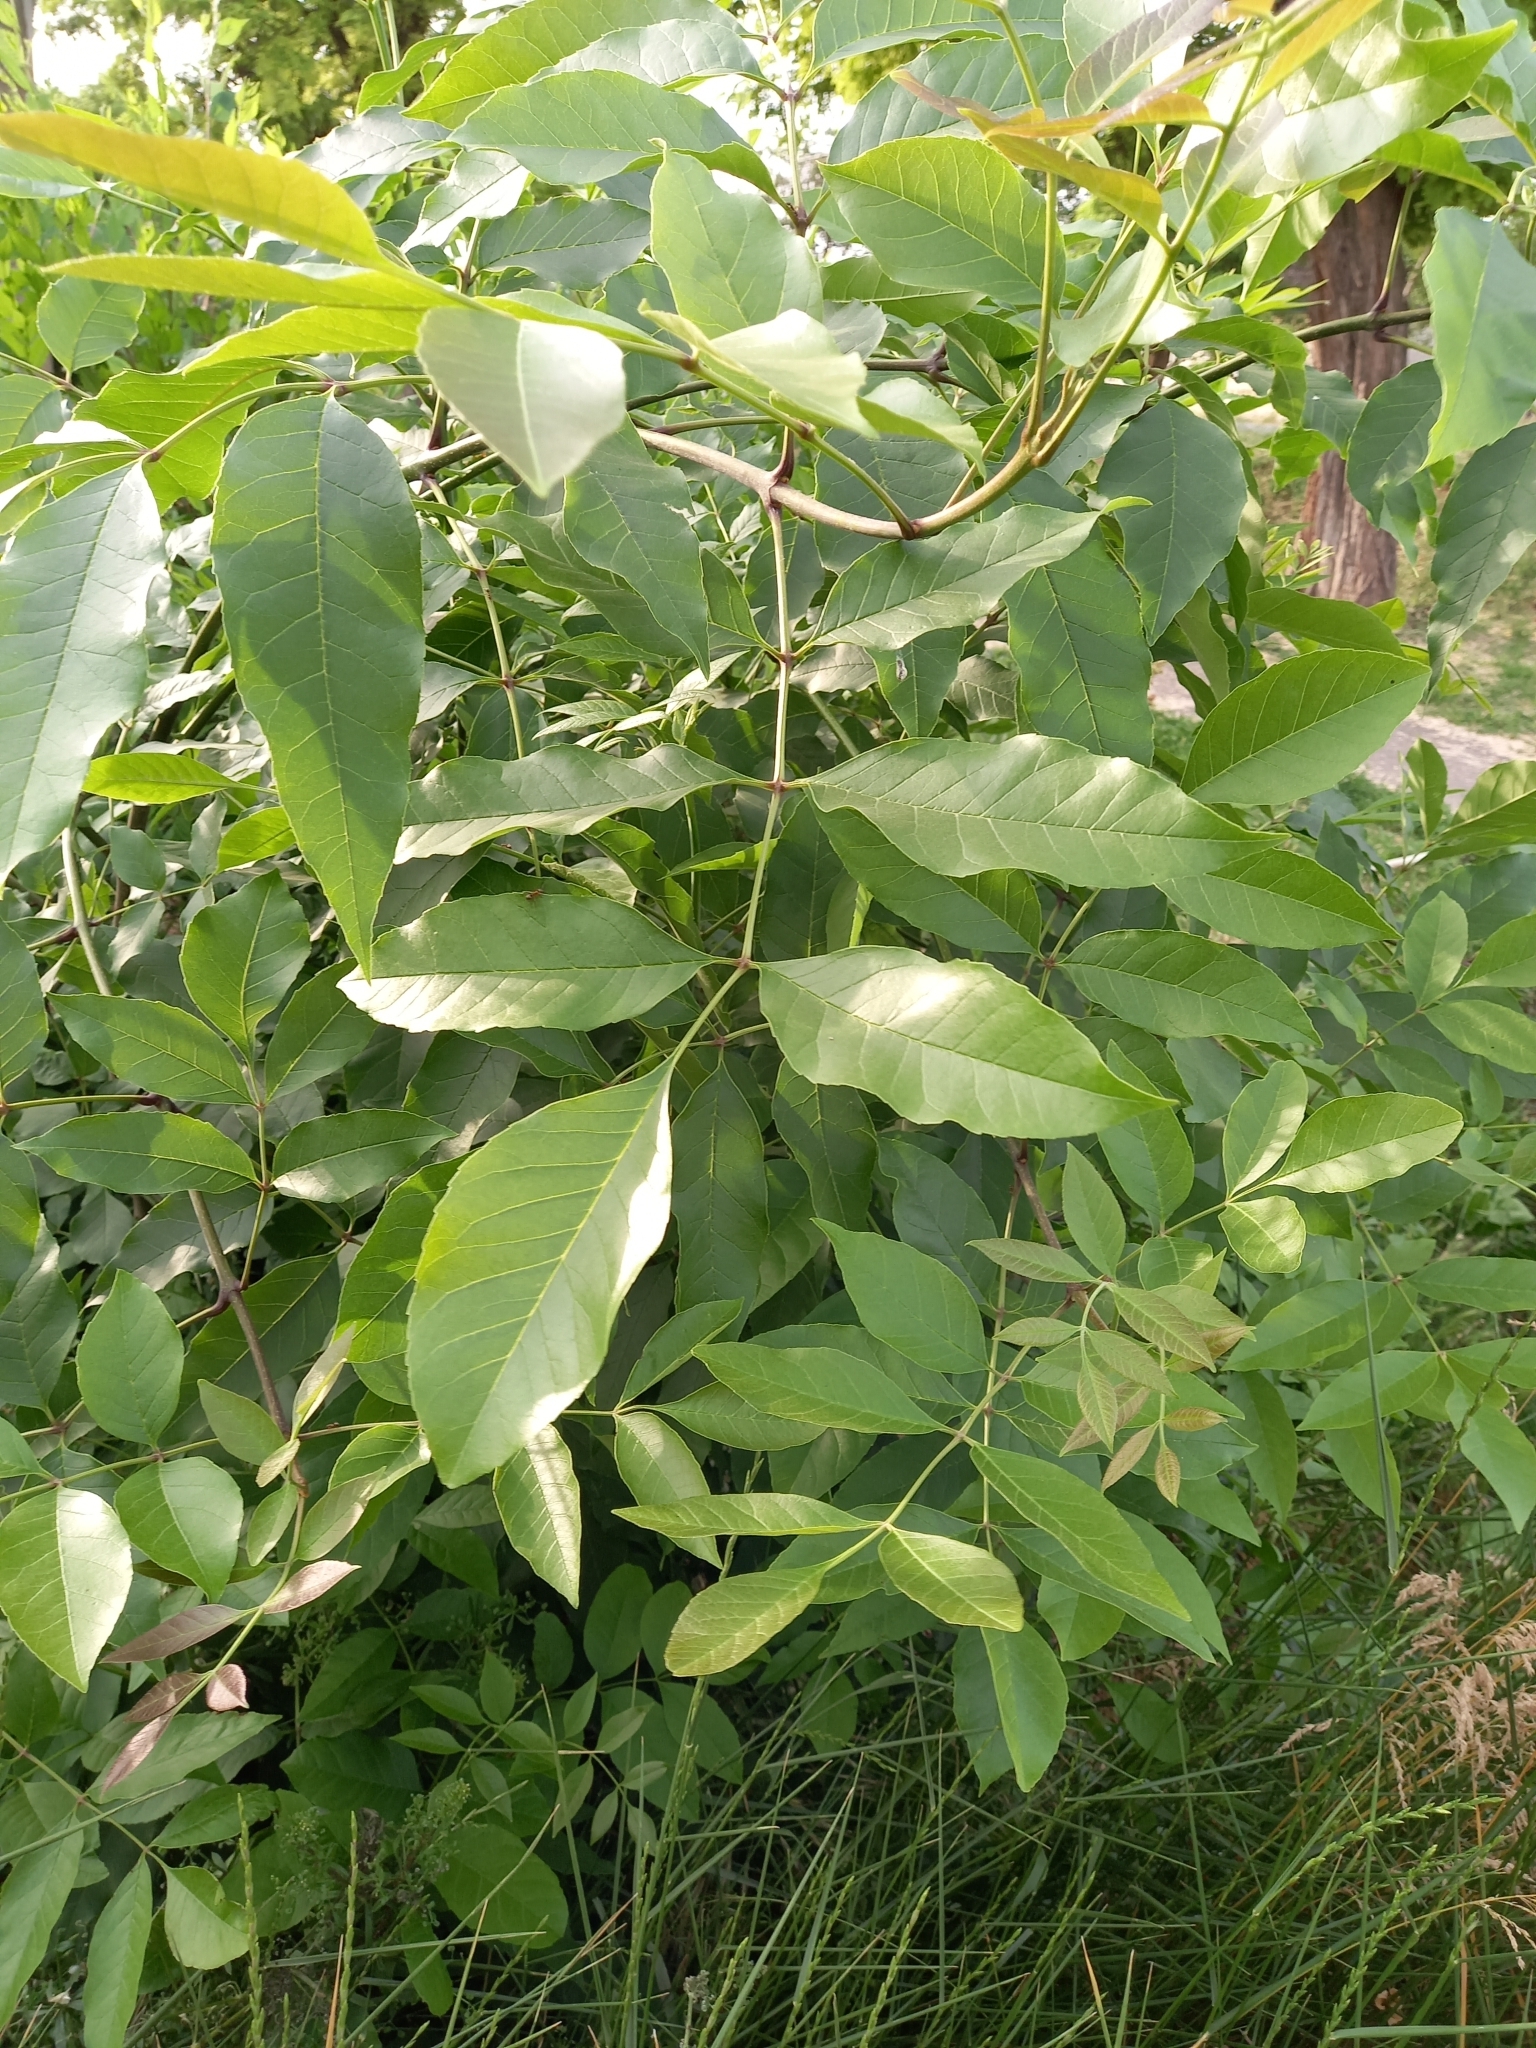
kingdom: Plantae
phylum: Tracheophyta
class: Magnoliopsida
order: Lamiales
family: Oleaceae
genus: Fraxinus
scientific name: Fraxinus pennsylvanica
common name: Green ash
